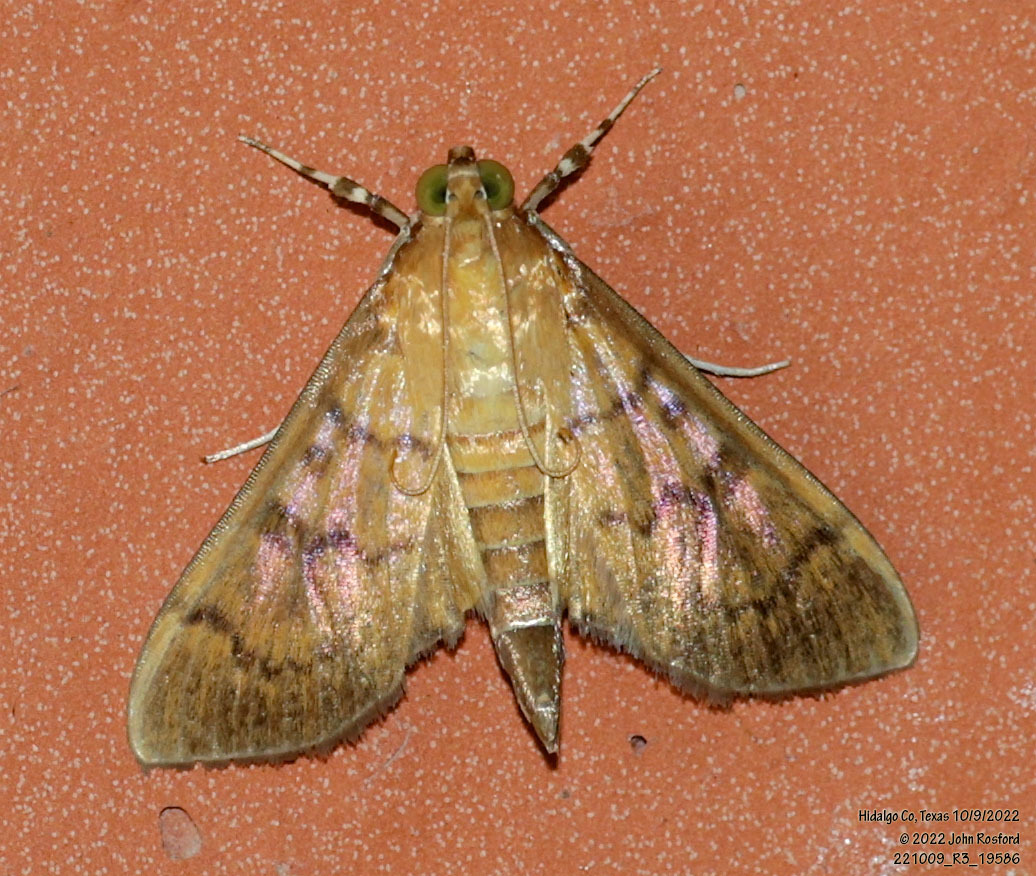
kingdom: Animalia
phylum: Arthropoda
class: Insecta
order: Lepidoptera
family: Crambidae
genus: Syllepte
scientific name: Syllepte obscuralis
